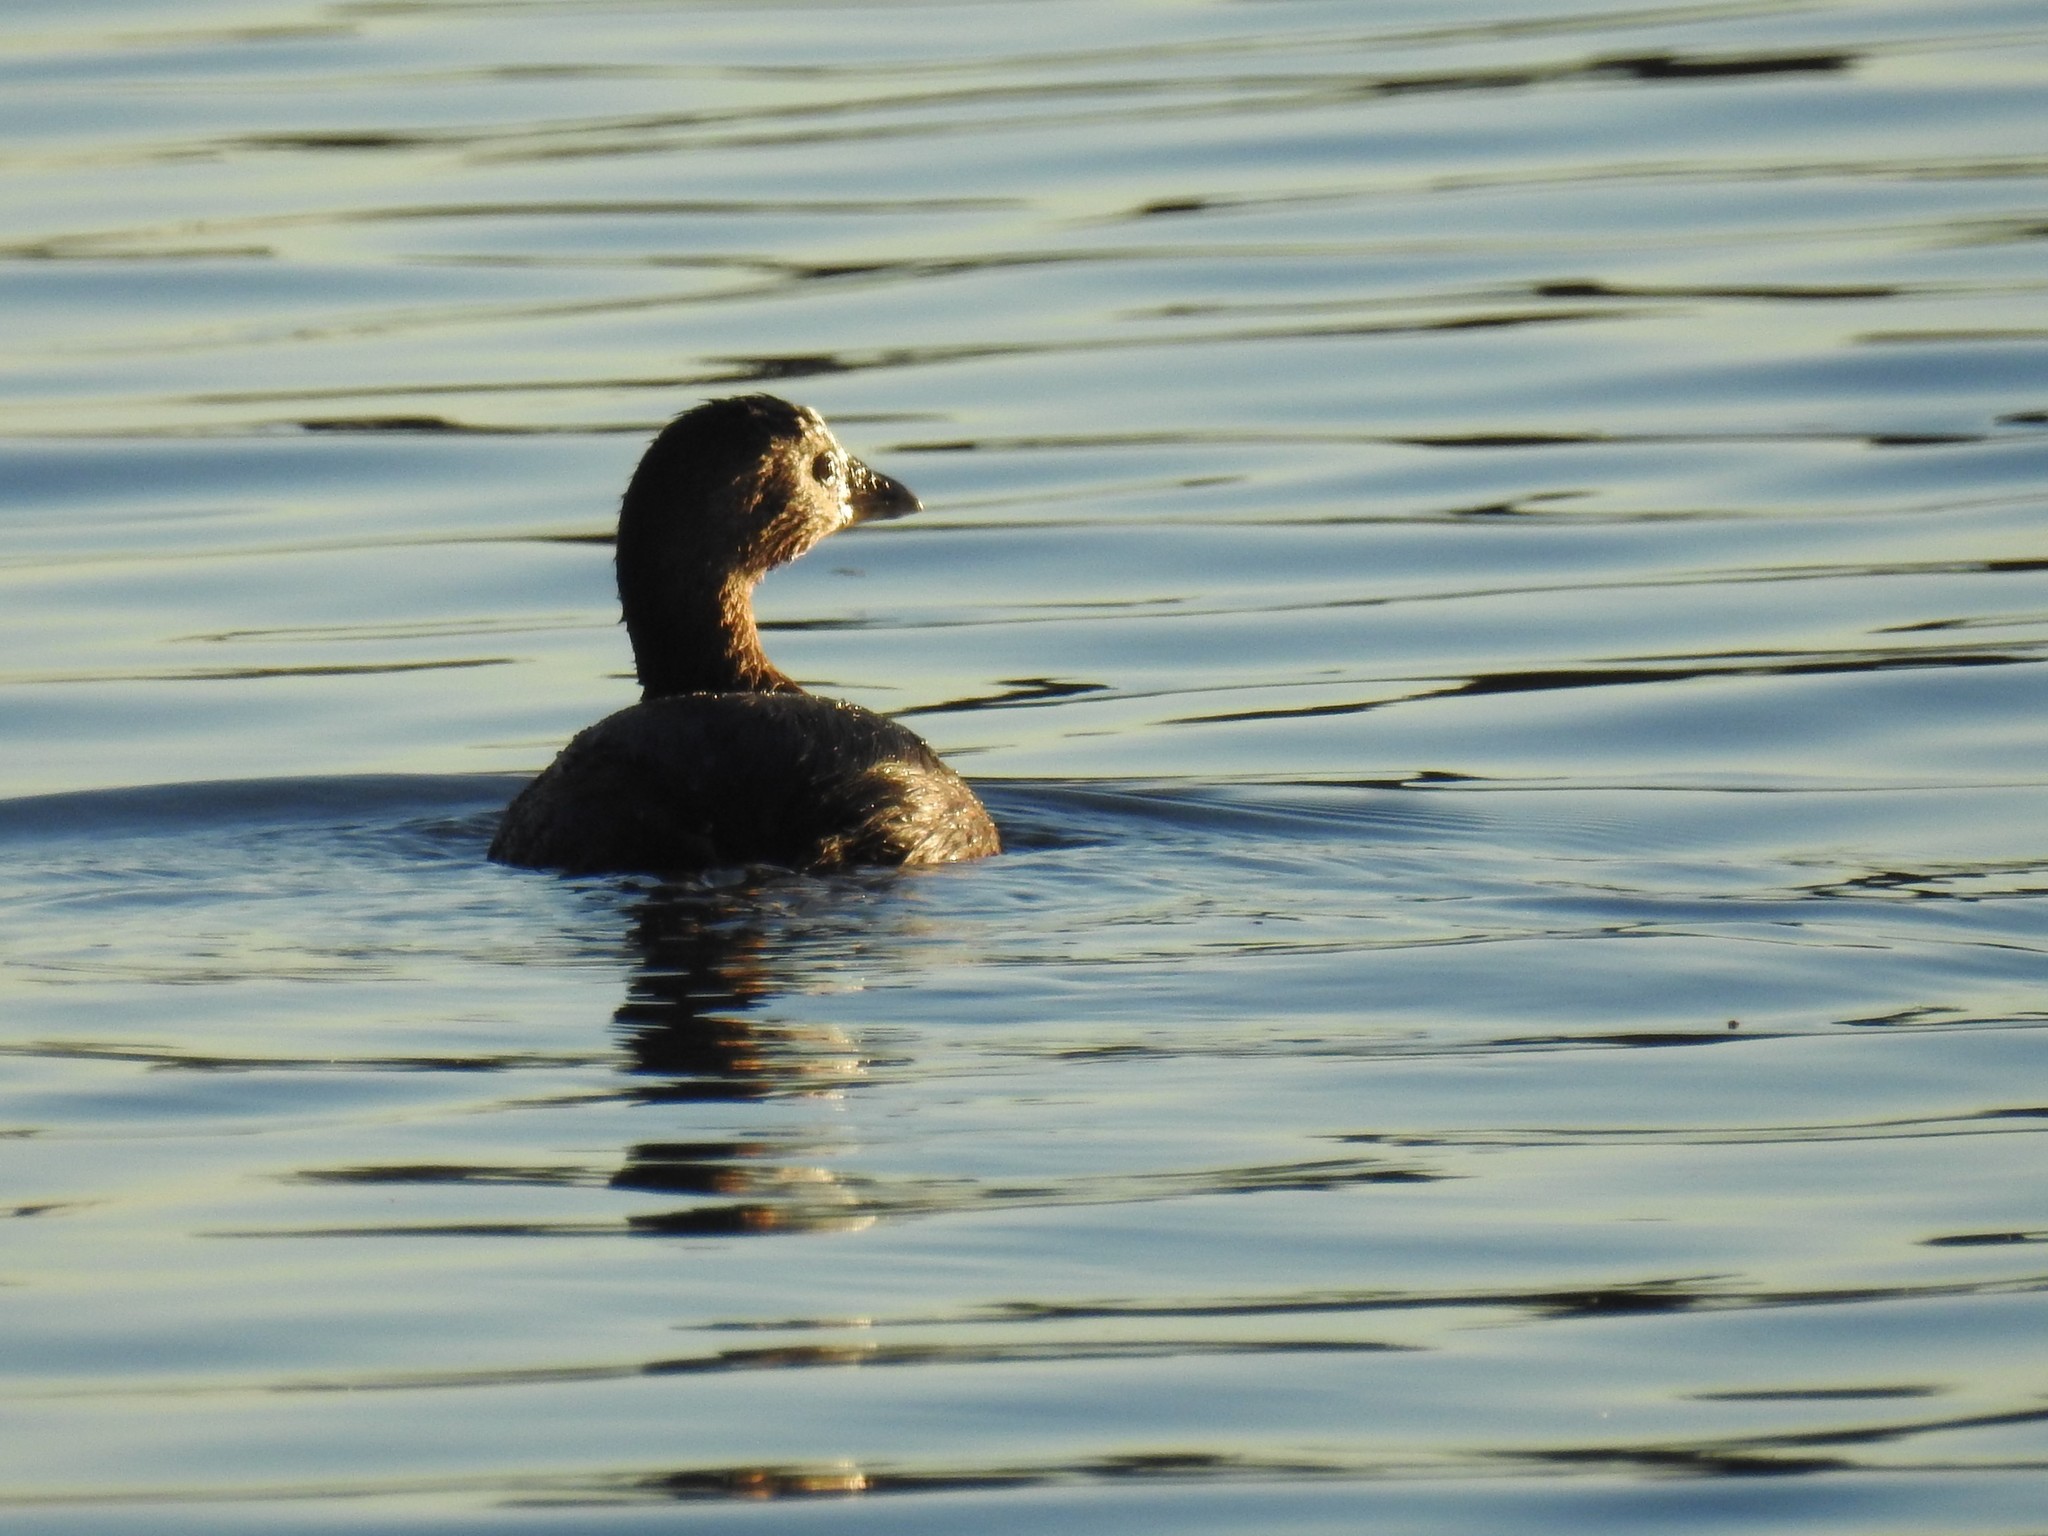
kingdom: Animalia
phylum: Chordata
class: Aves
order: Podicipediformes
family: Podicipedidae
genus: Podilymbus
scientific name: Podilymbus podiceps
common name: Pied-billed grebe
